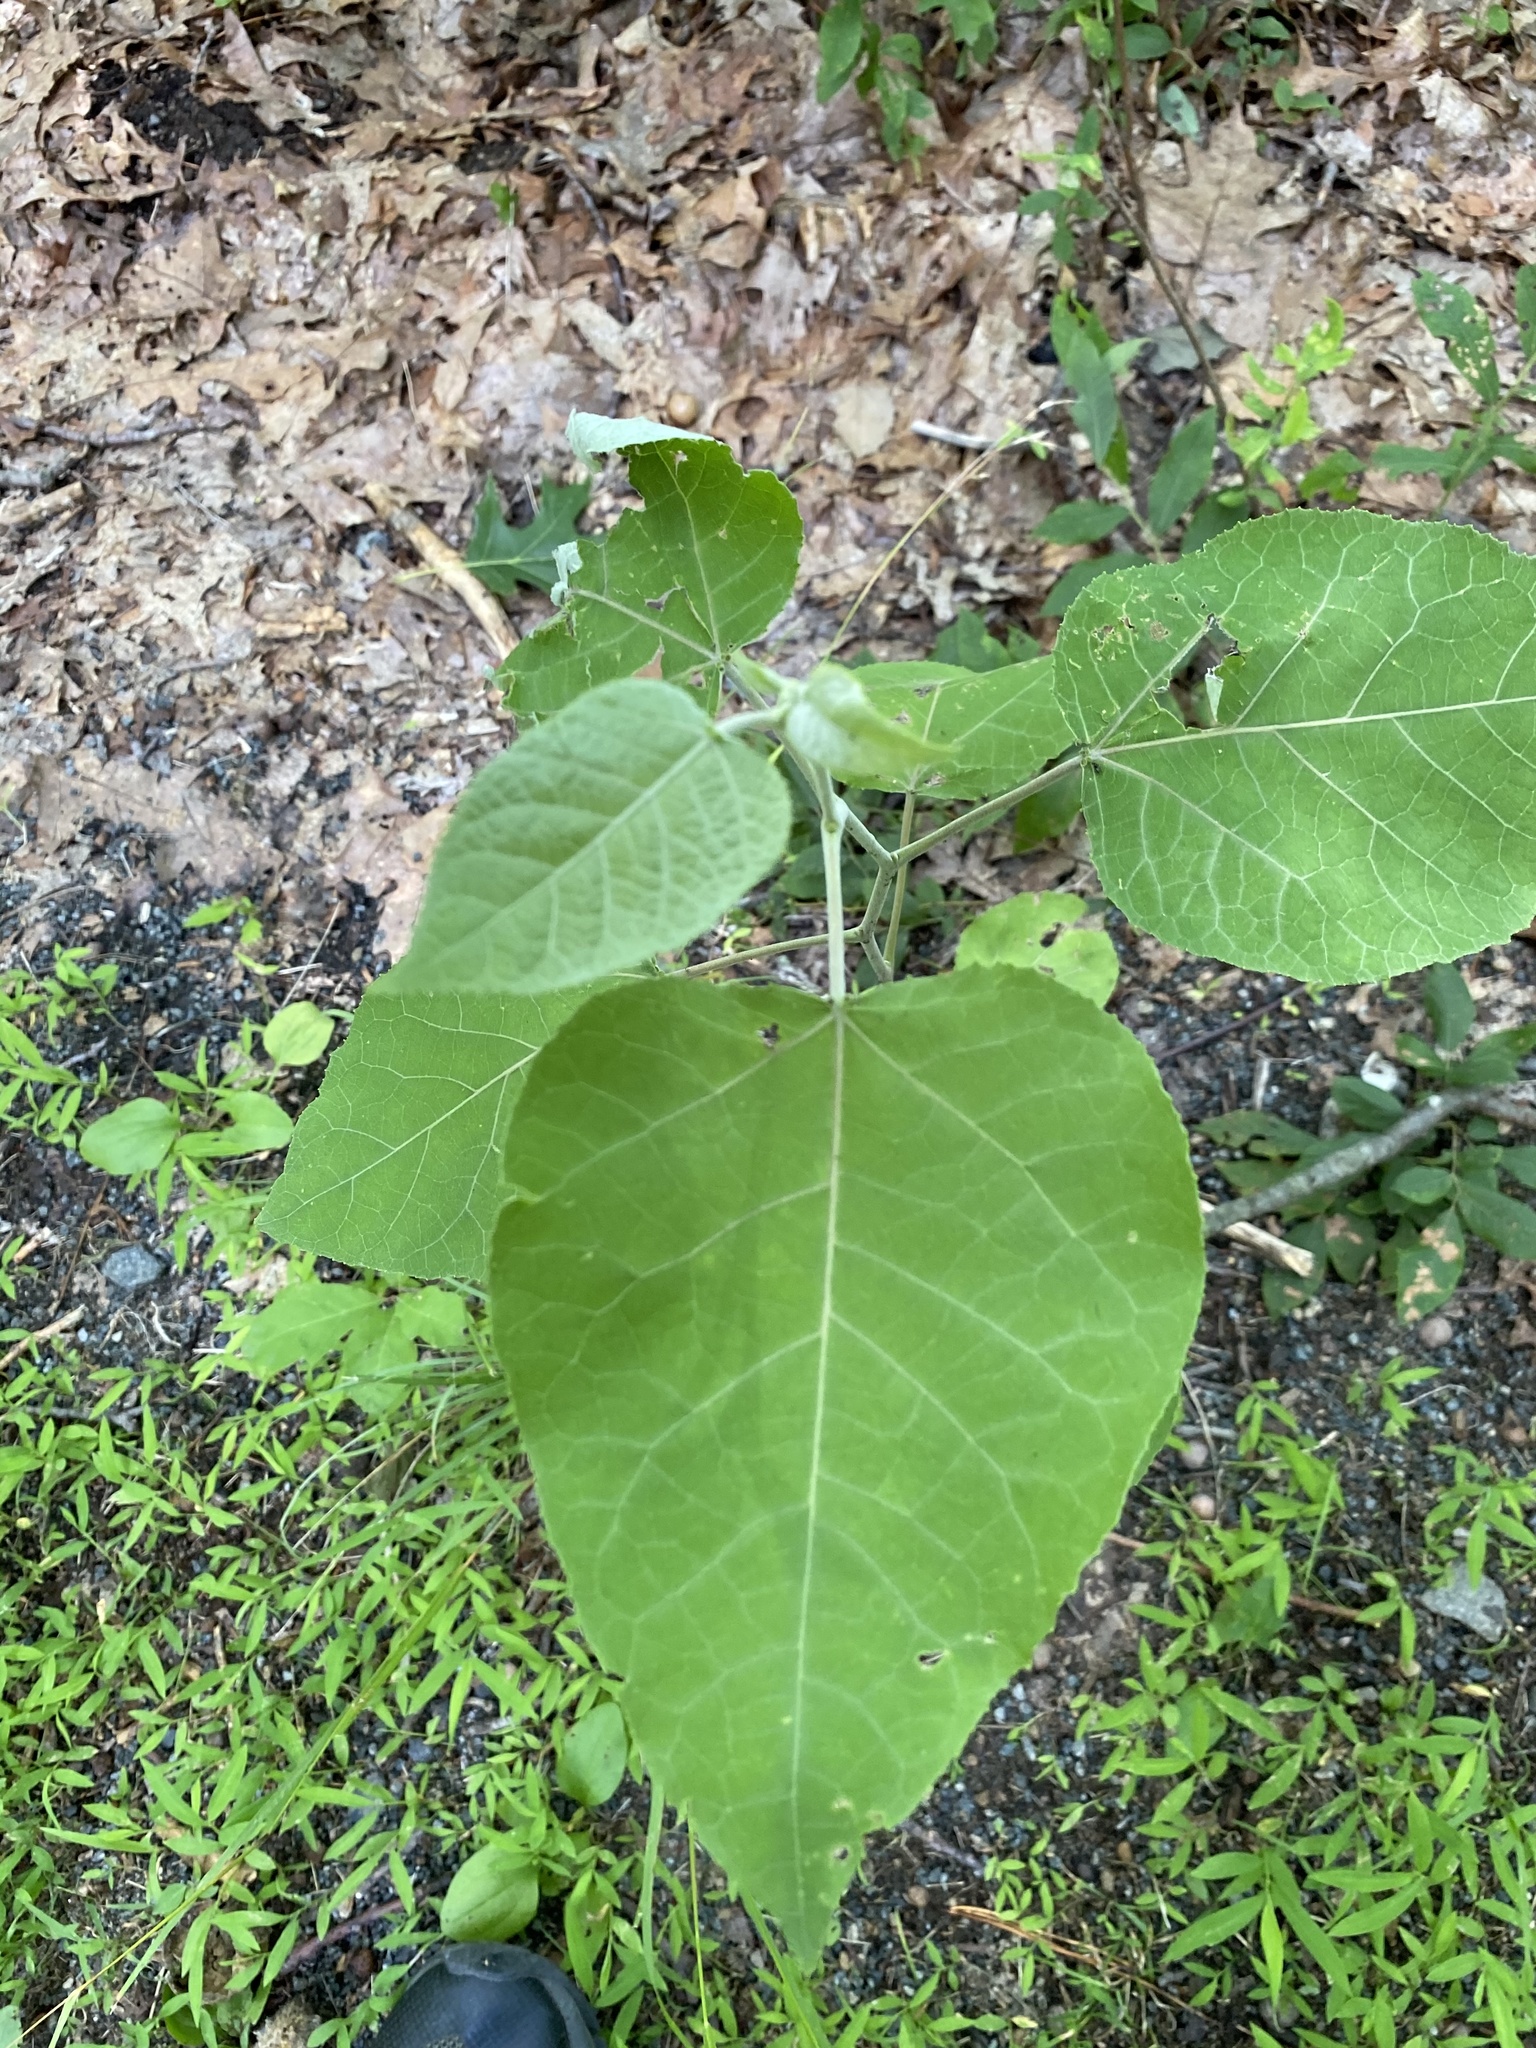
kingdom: Plantae
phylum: Tracheophyta
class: Magnoliopsida
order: Malpighiales
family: Salicaceae
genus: Populus
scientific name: Populus grandidentata
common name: Bigtooth aspen
